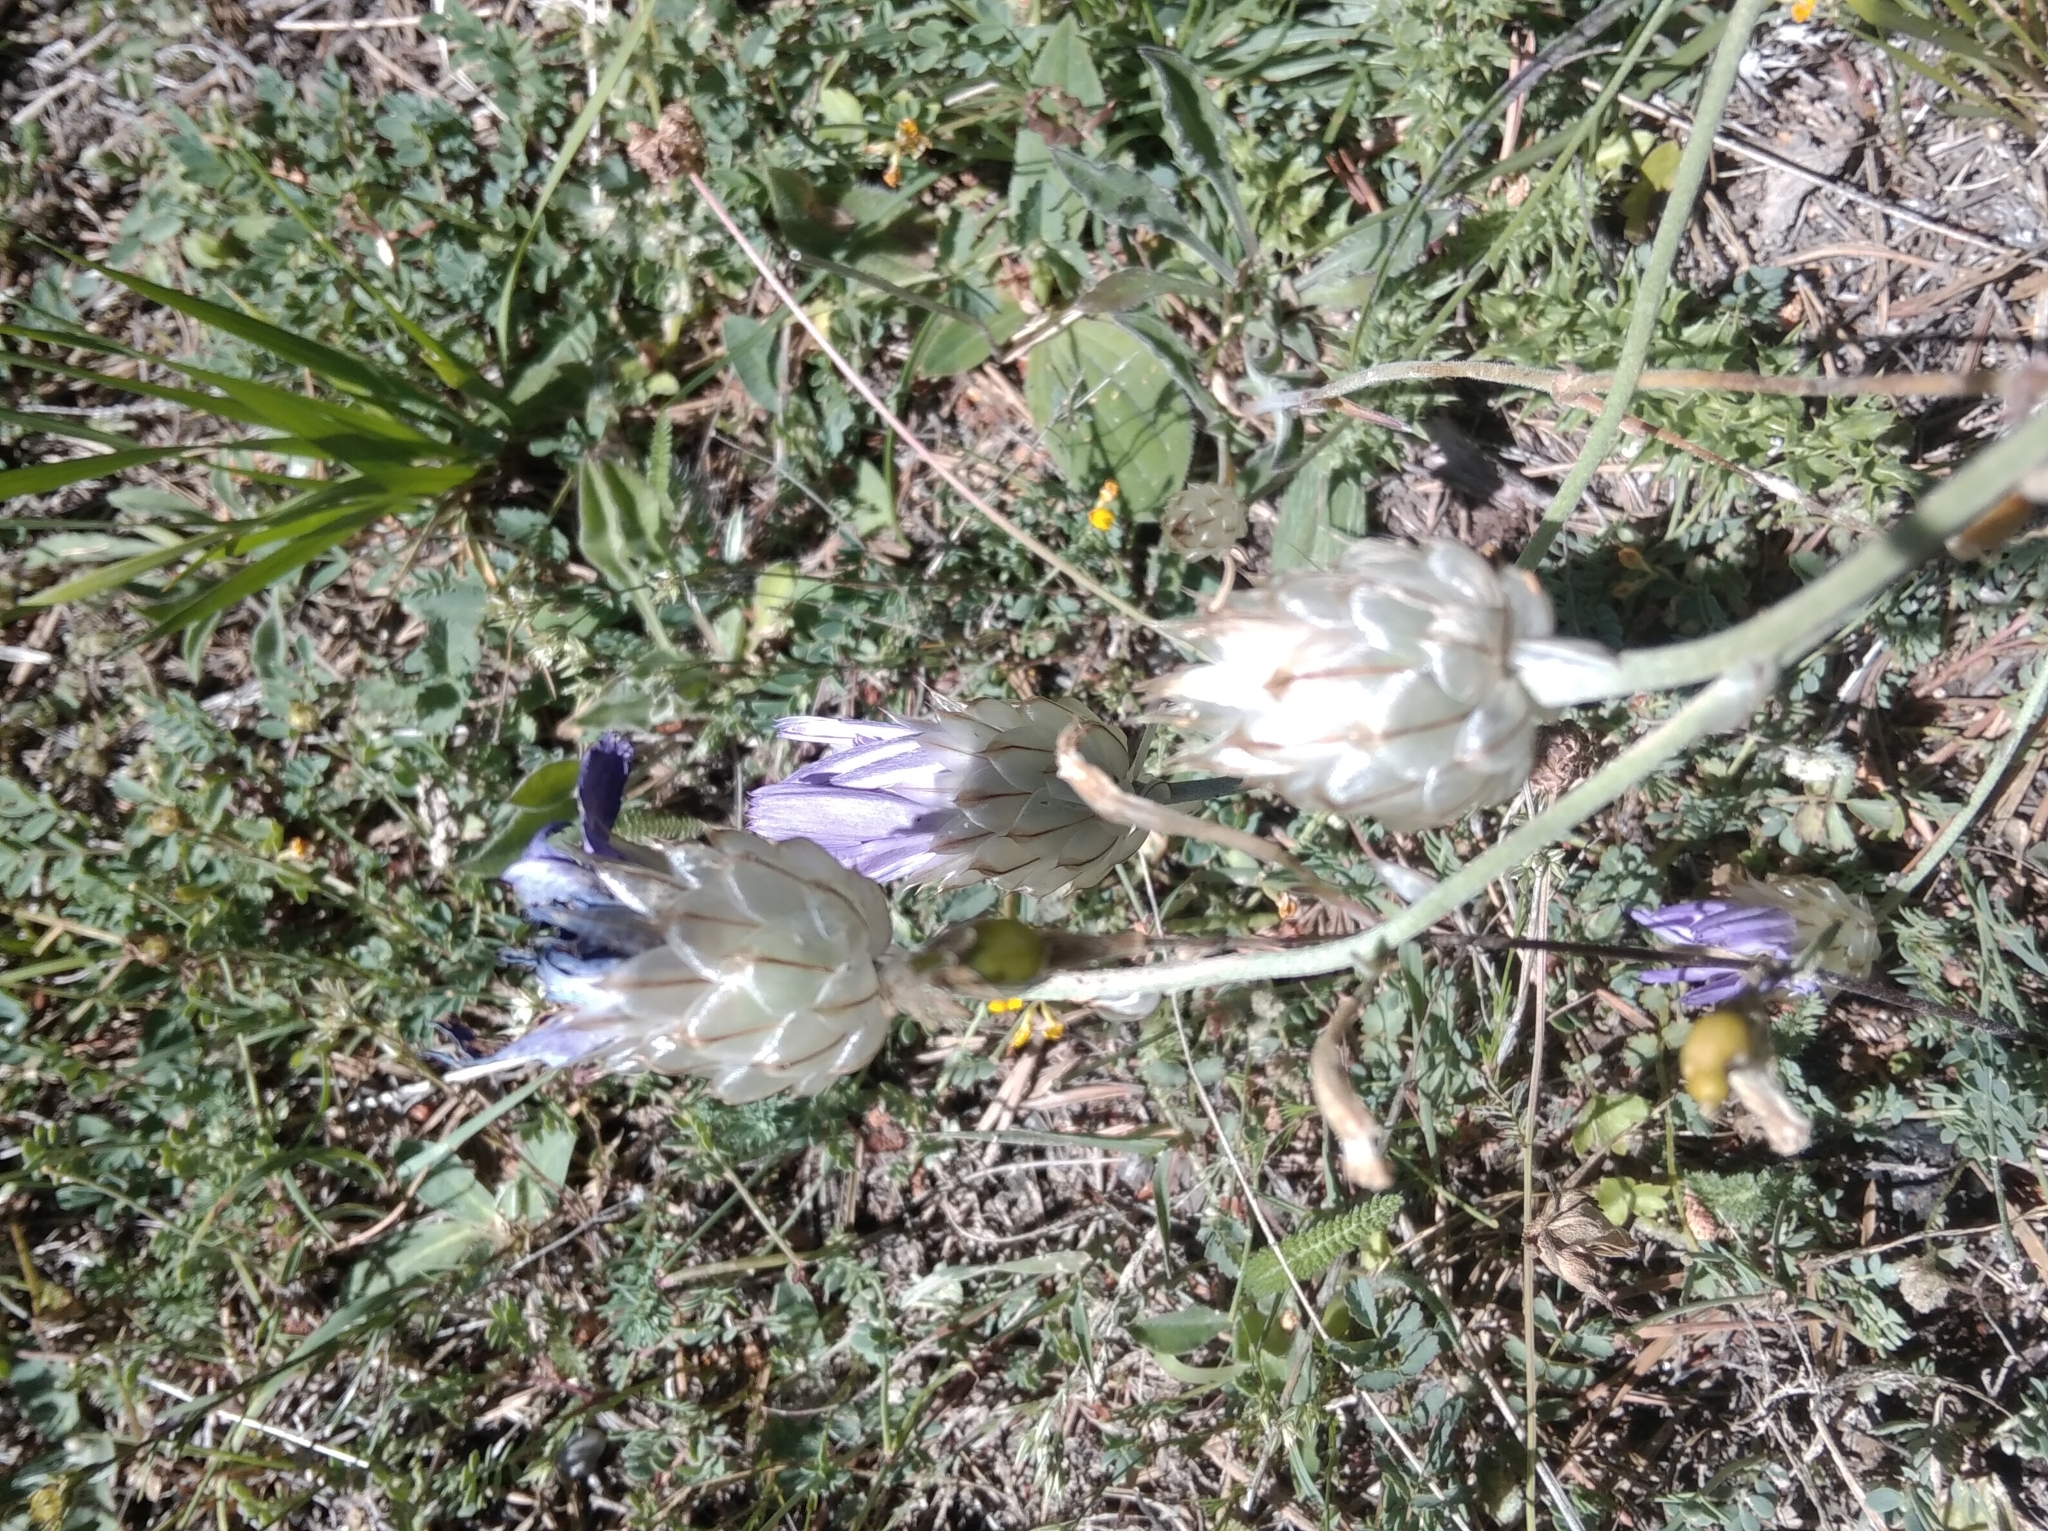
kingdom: Plantae
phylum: Tracheophyta
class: Magnoliopsida
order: Asterales
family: Asteraceae
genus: Catananche
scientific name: Catananche caerulea
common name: Blue cupidone
